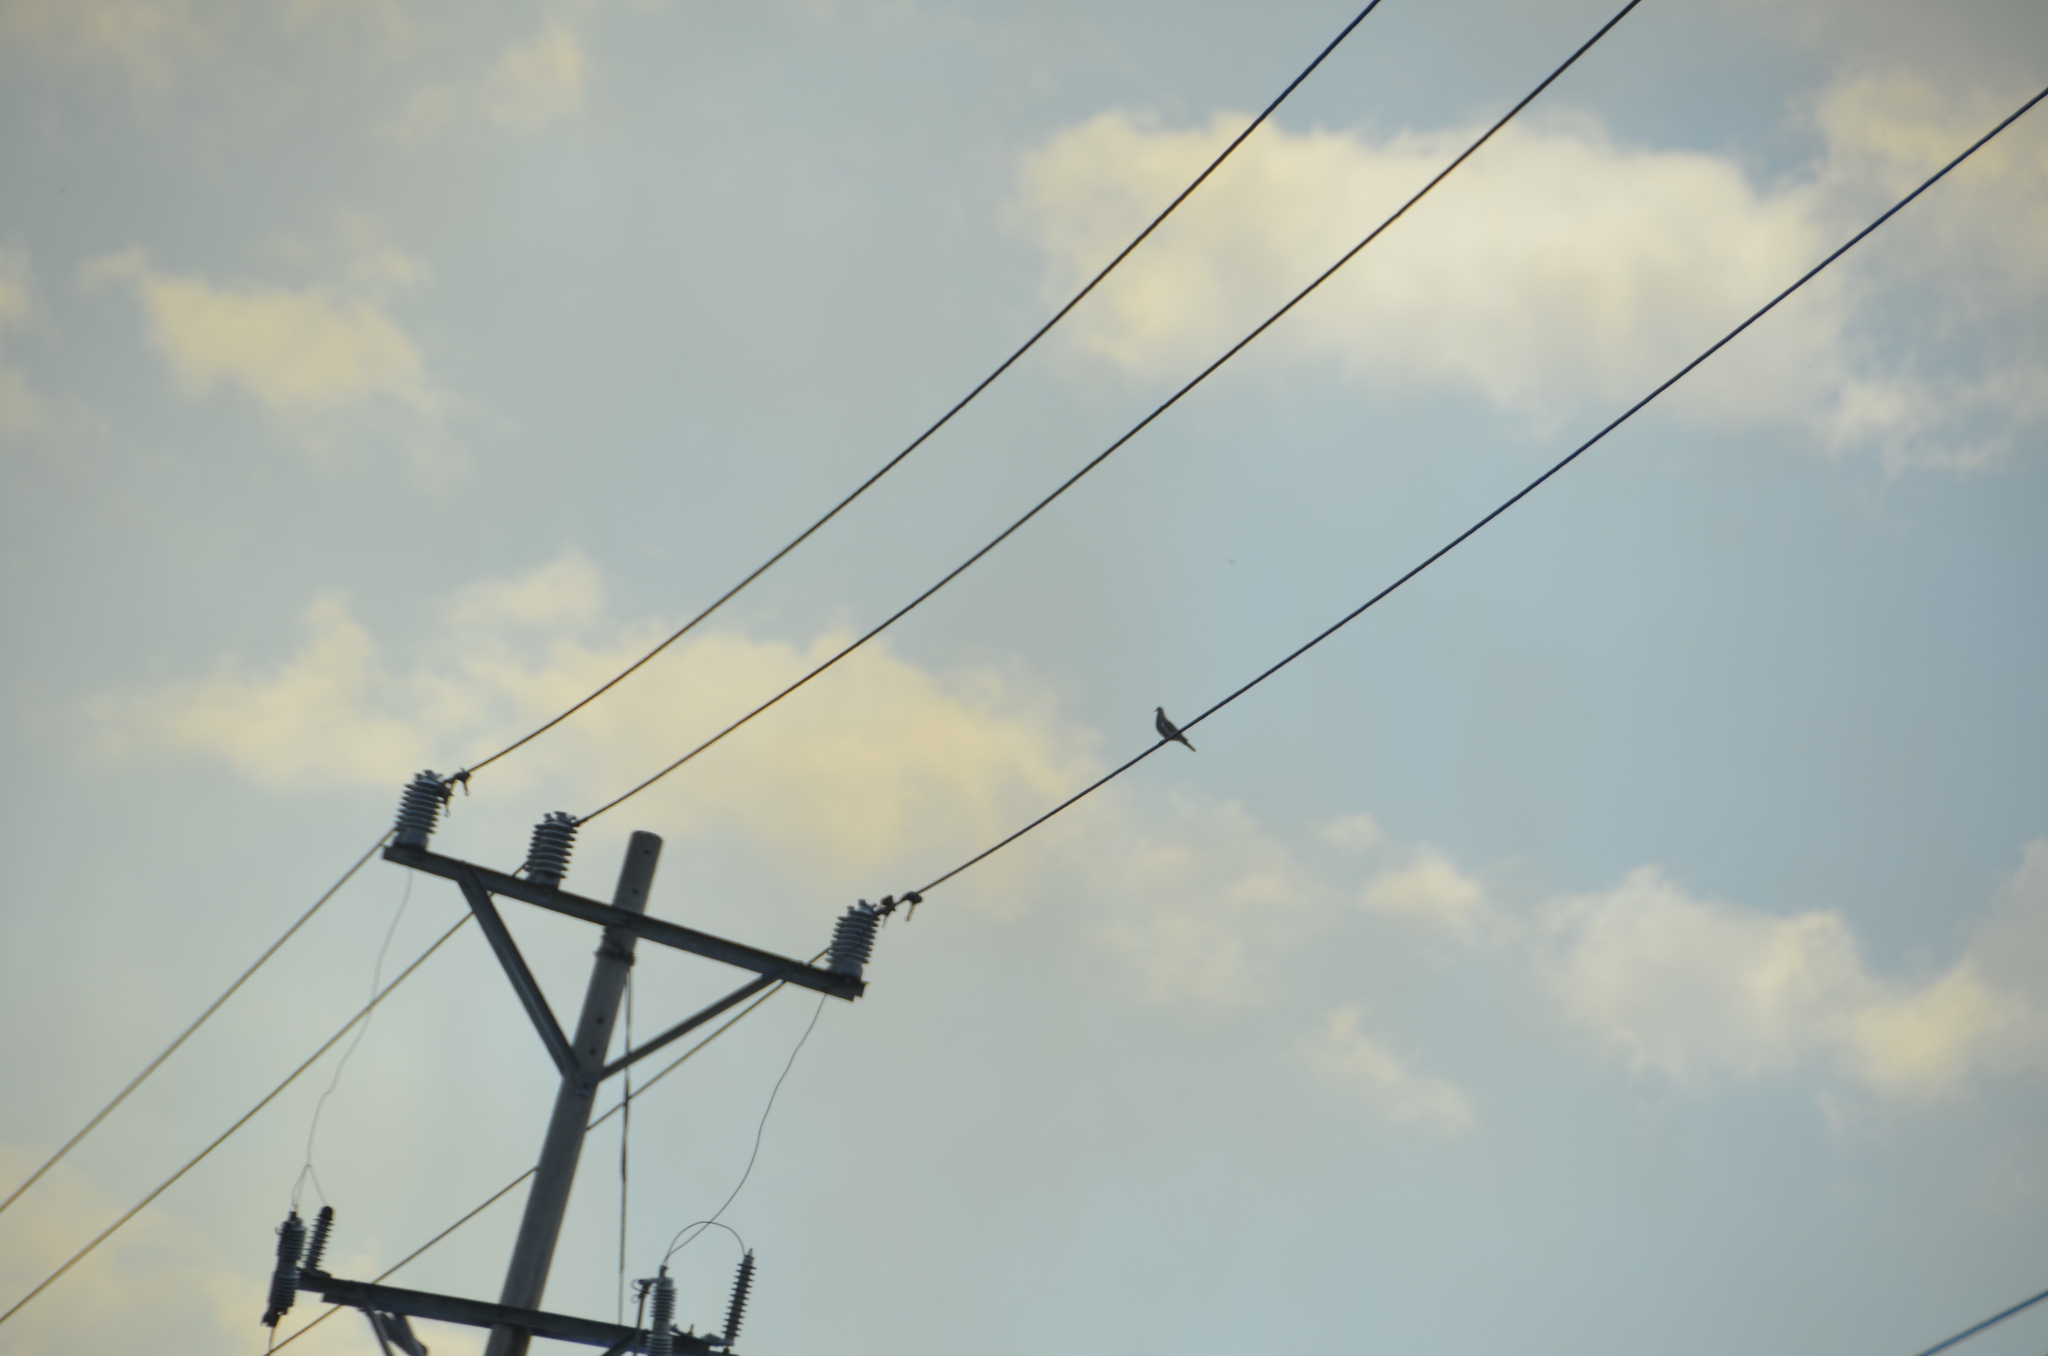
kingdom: Animalia
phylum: Chordata
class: Aves
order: Columbiformes
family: Columbidae
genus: Zenaida
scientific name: Zenaida asiatica
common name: White-winged dove
